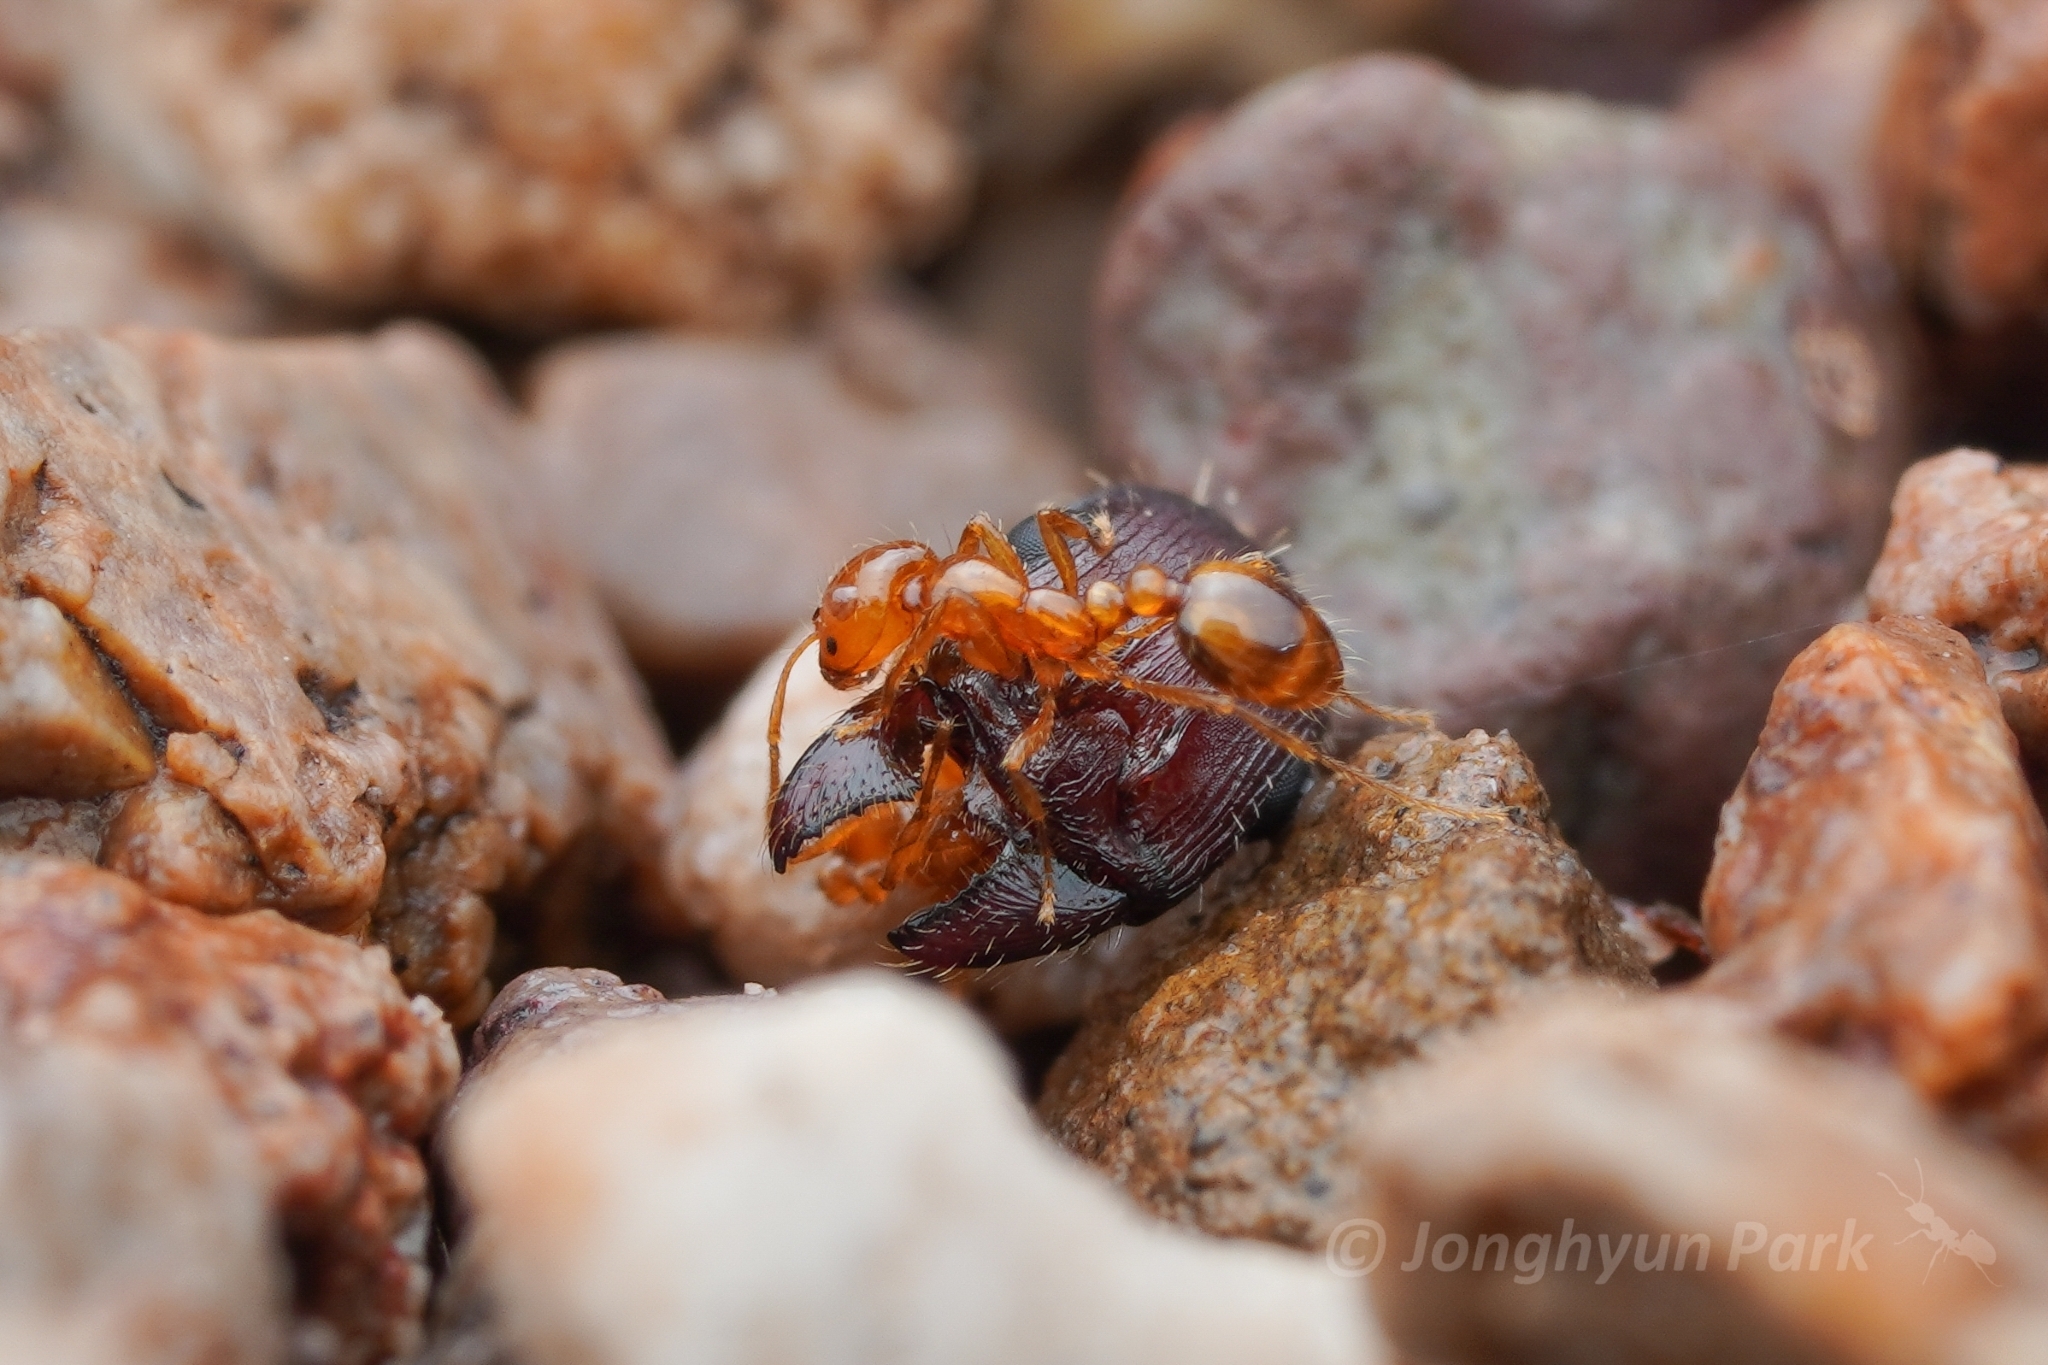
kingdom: Animalia
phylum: Arthropoda
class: Insecta
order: Hymenoptera
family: Formicidae
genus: Solenopsis
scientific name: Solenopsis amblychila
